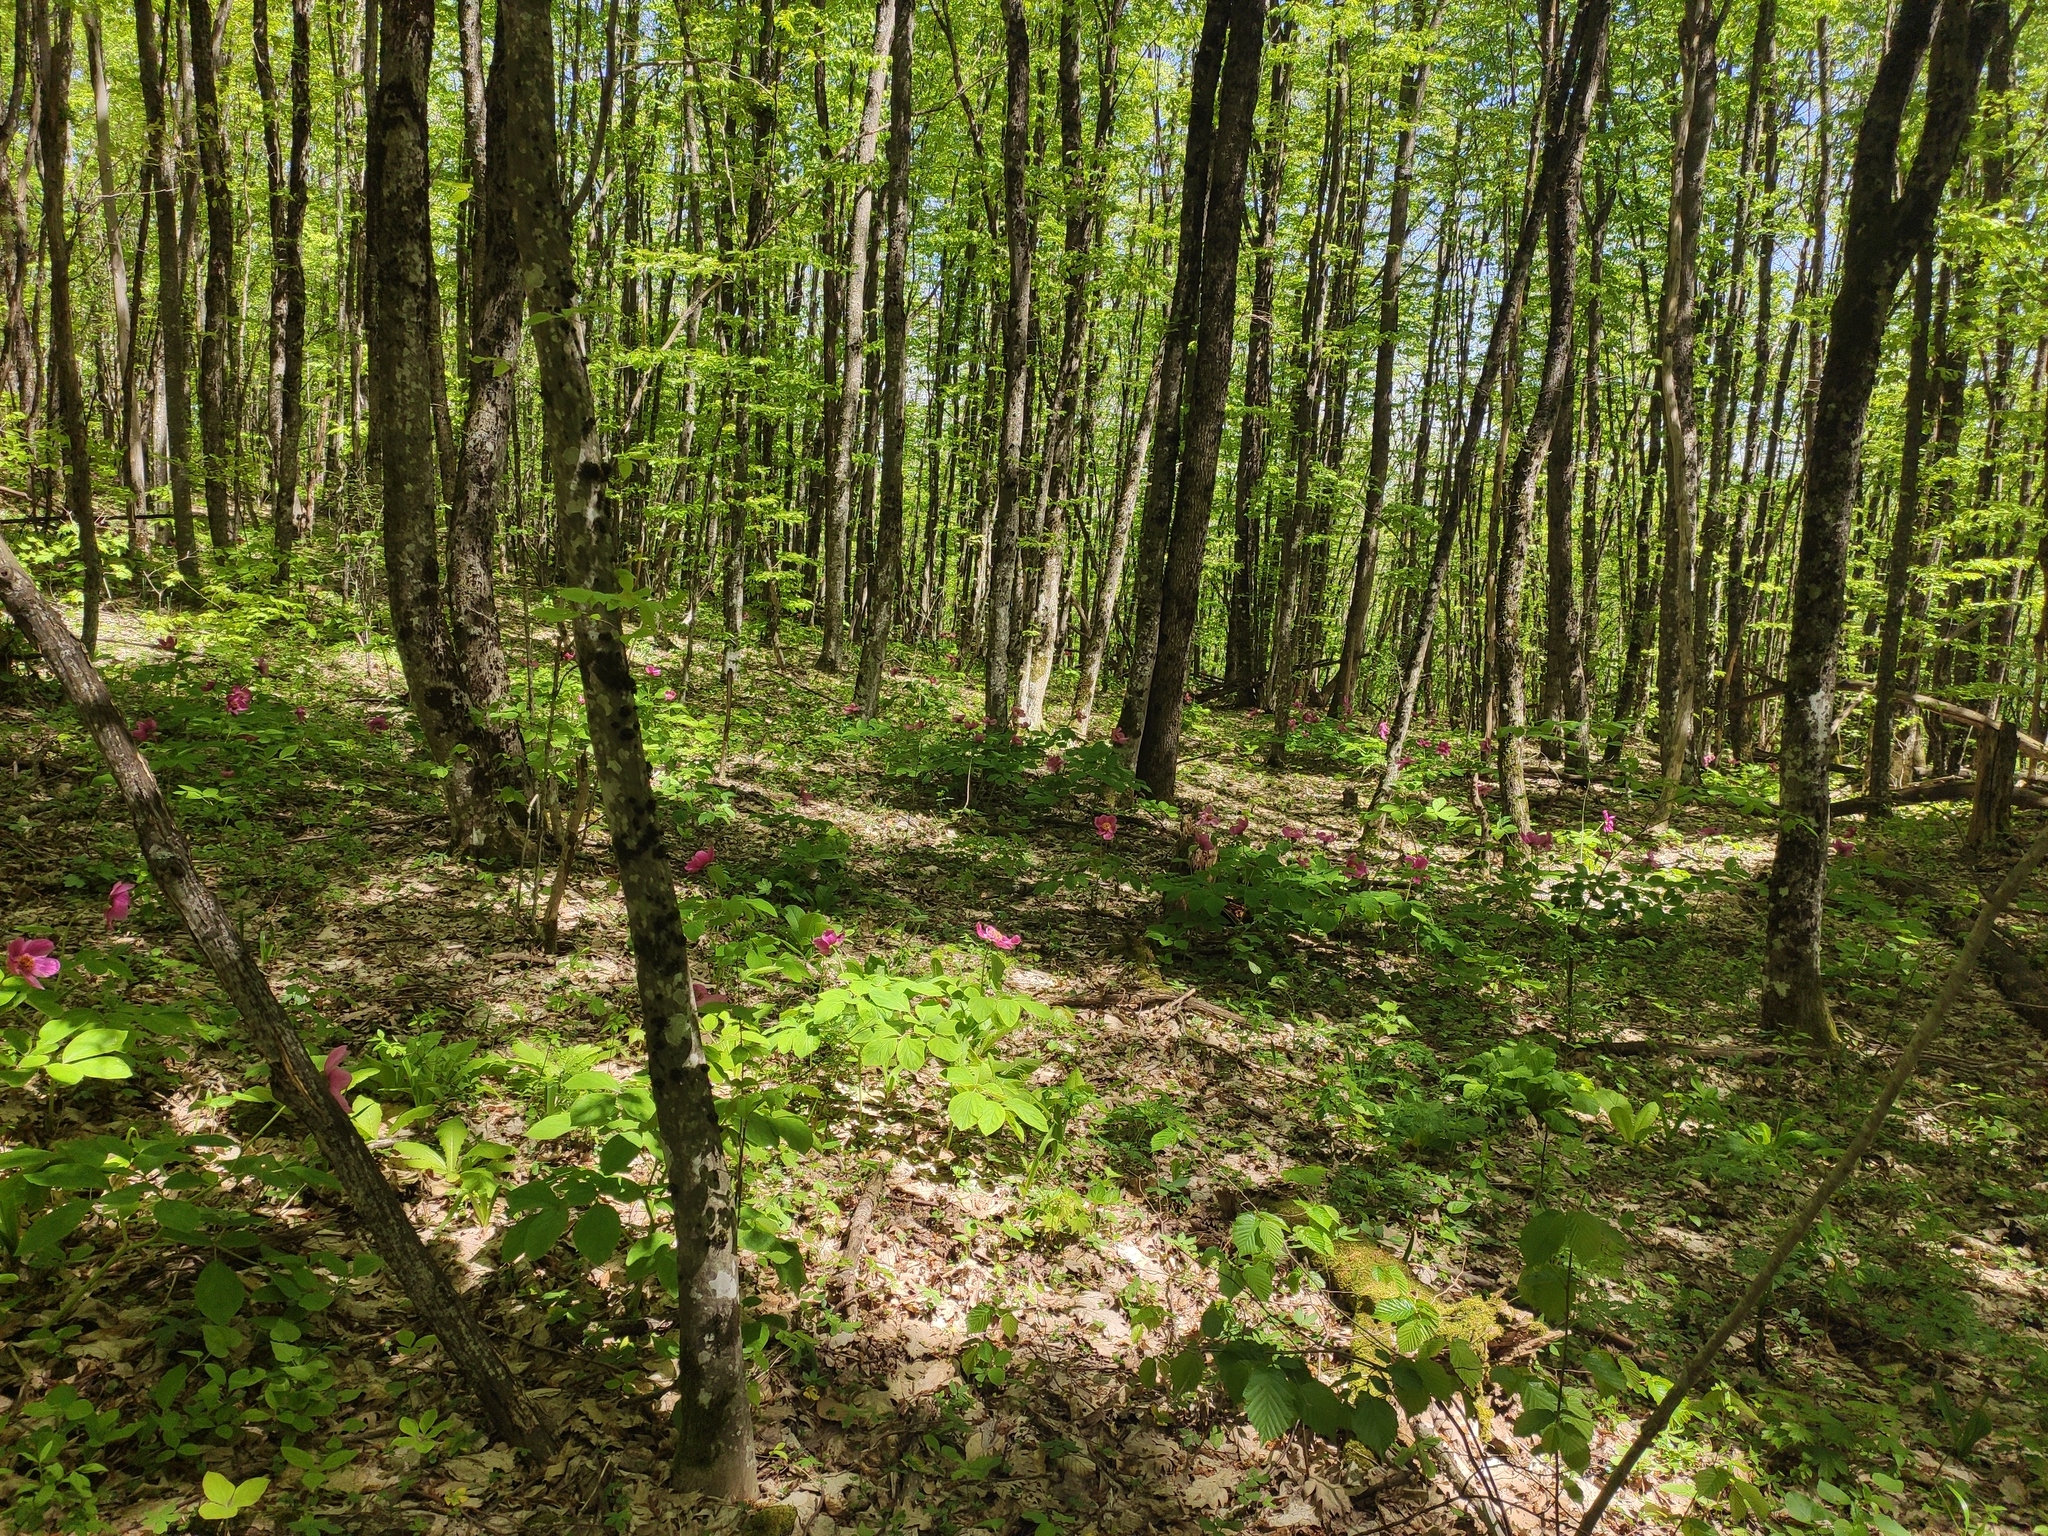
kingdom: Plantae
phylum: Tracheophyta
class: Magnoliopsida
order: Saxifragales
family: Paeoniaceae
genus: Paeonia
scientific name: Paeonia caucasica
